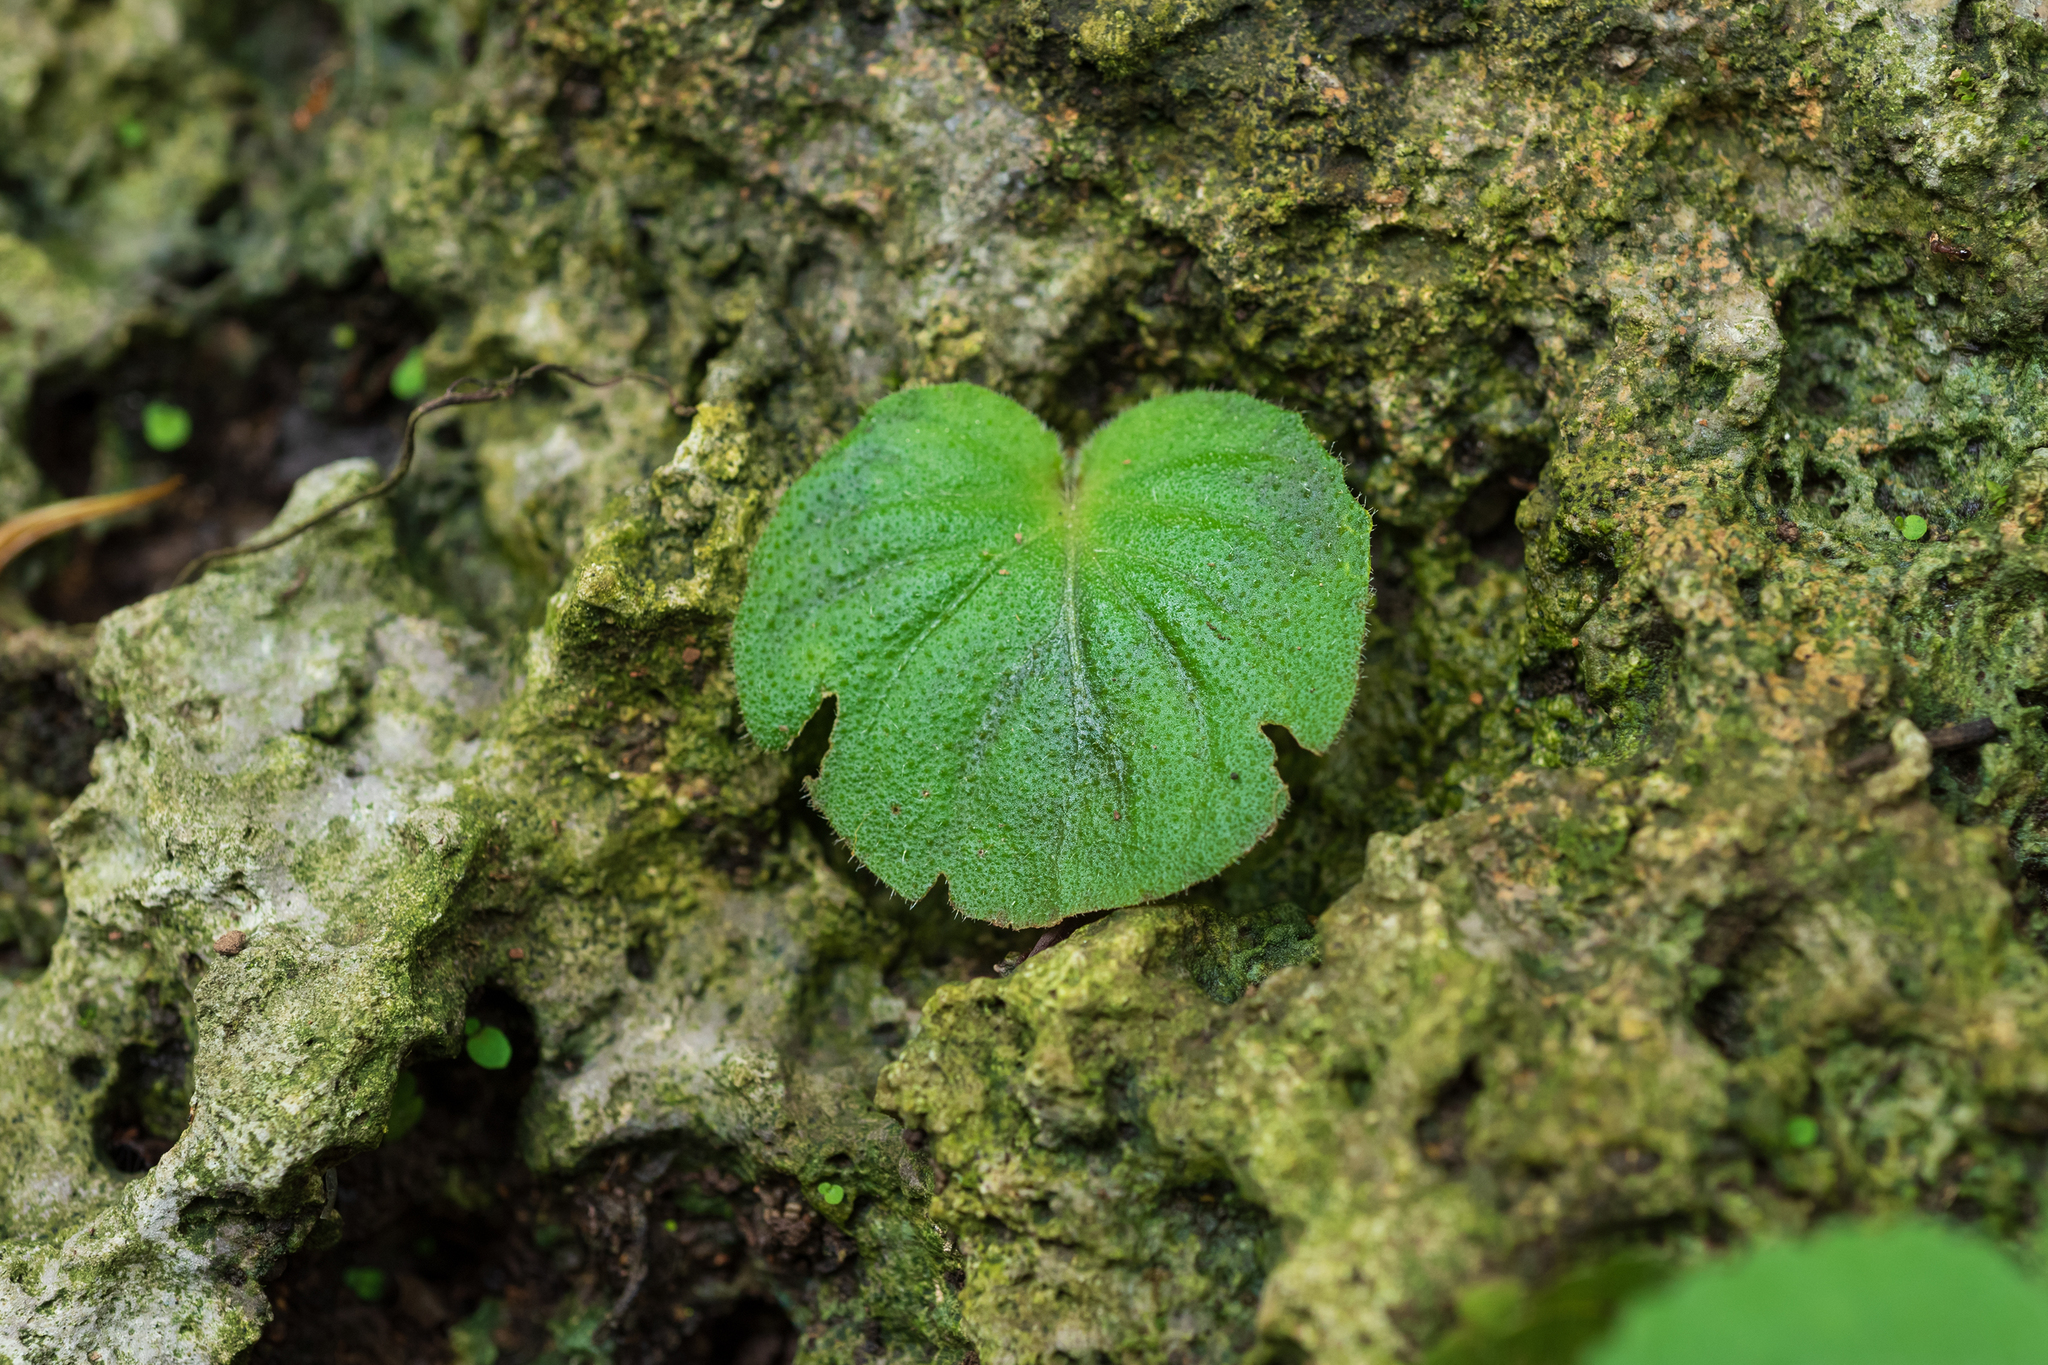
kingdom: Plantae
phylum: Tracheophyta
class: Magnoliopsida
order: Lamiales
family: Gesneriaceae
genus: Epithema
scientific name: Epithema ceylanicum
